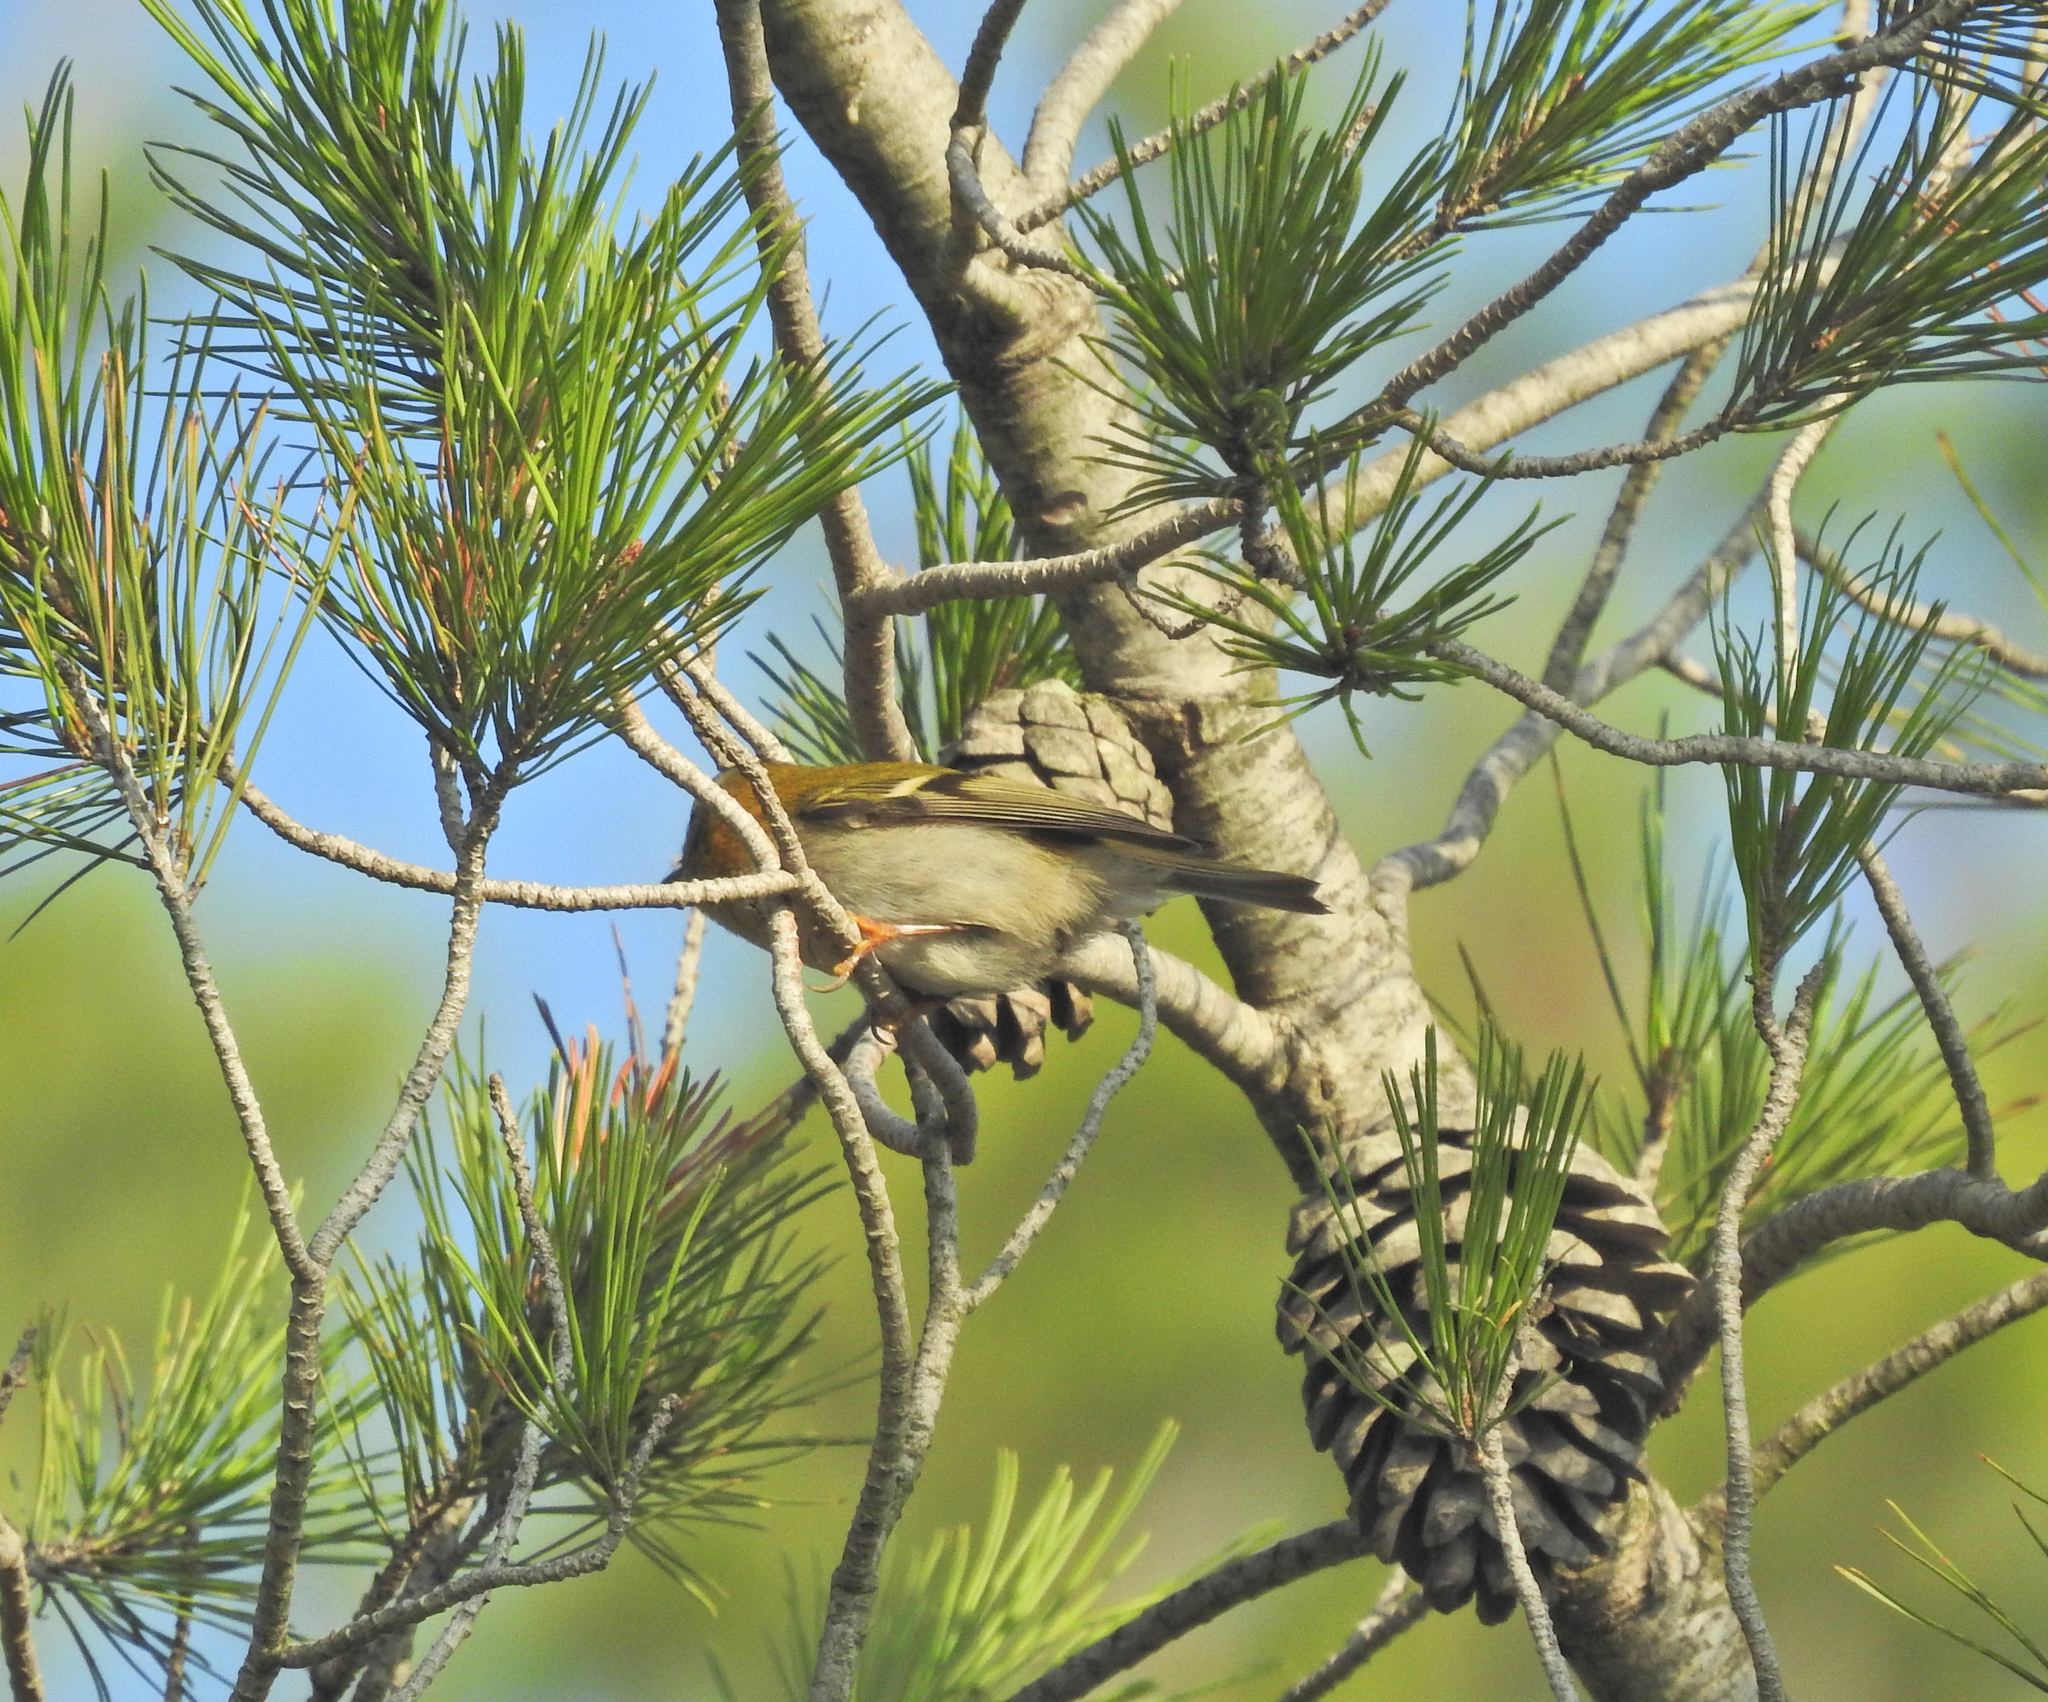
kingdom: Animalia
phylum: Chordata
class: Aves
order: Passeriformes
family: Regulidae
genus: Regulus
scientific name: Regulus ignicapilla
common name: Firecrest
